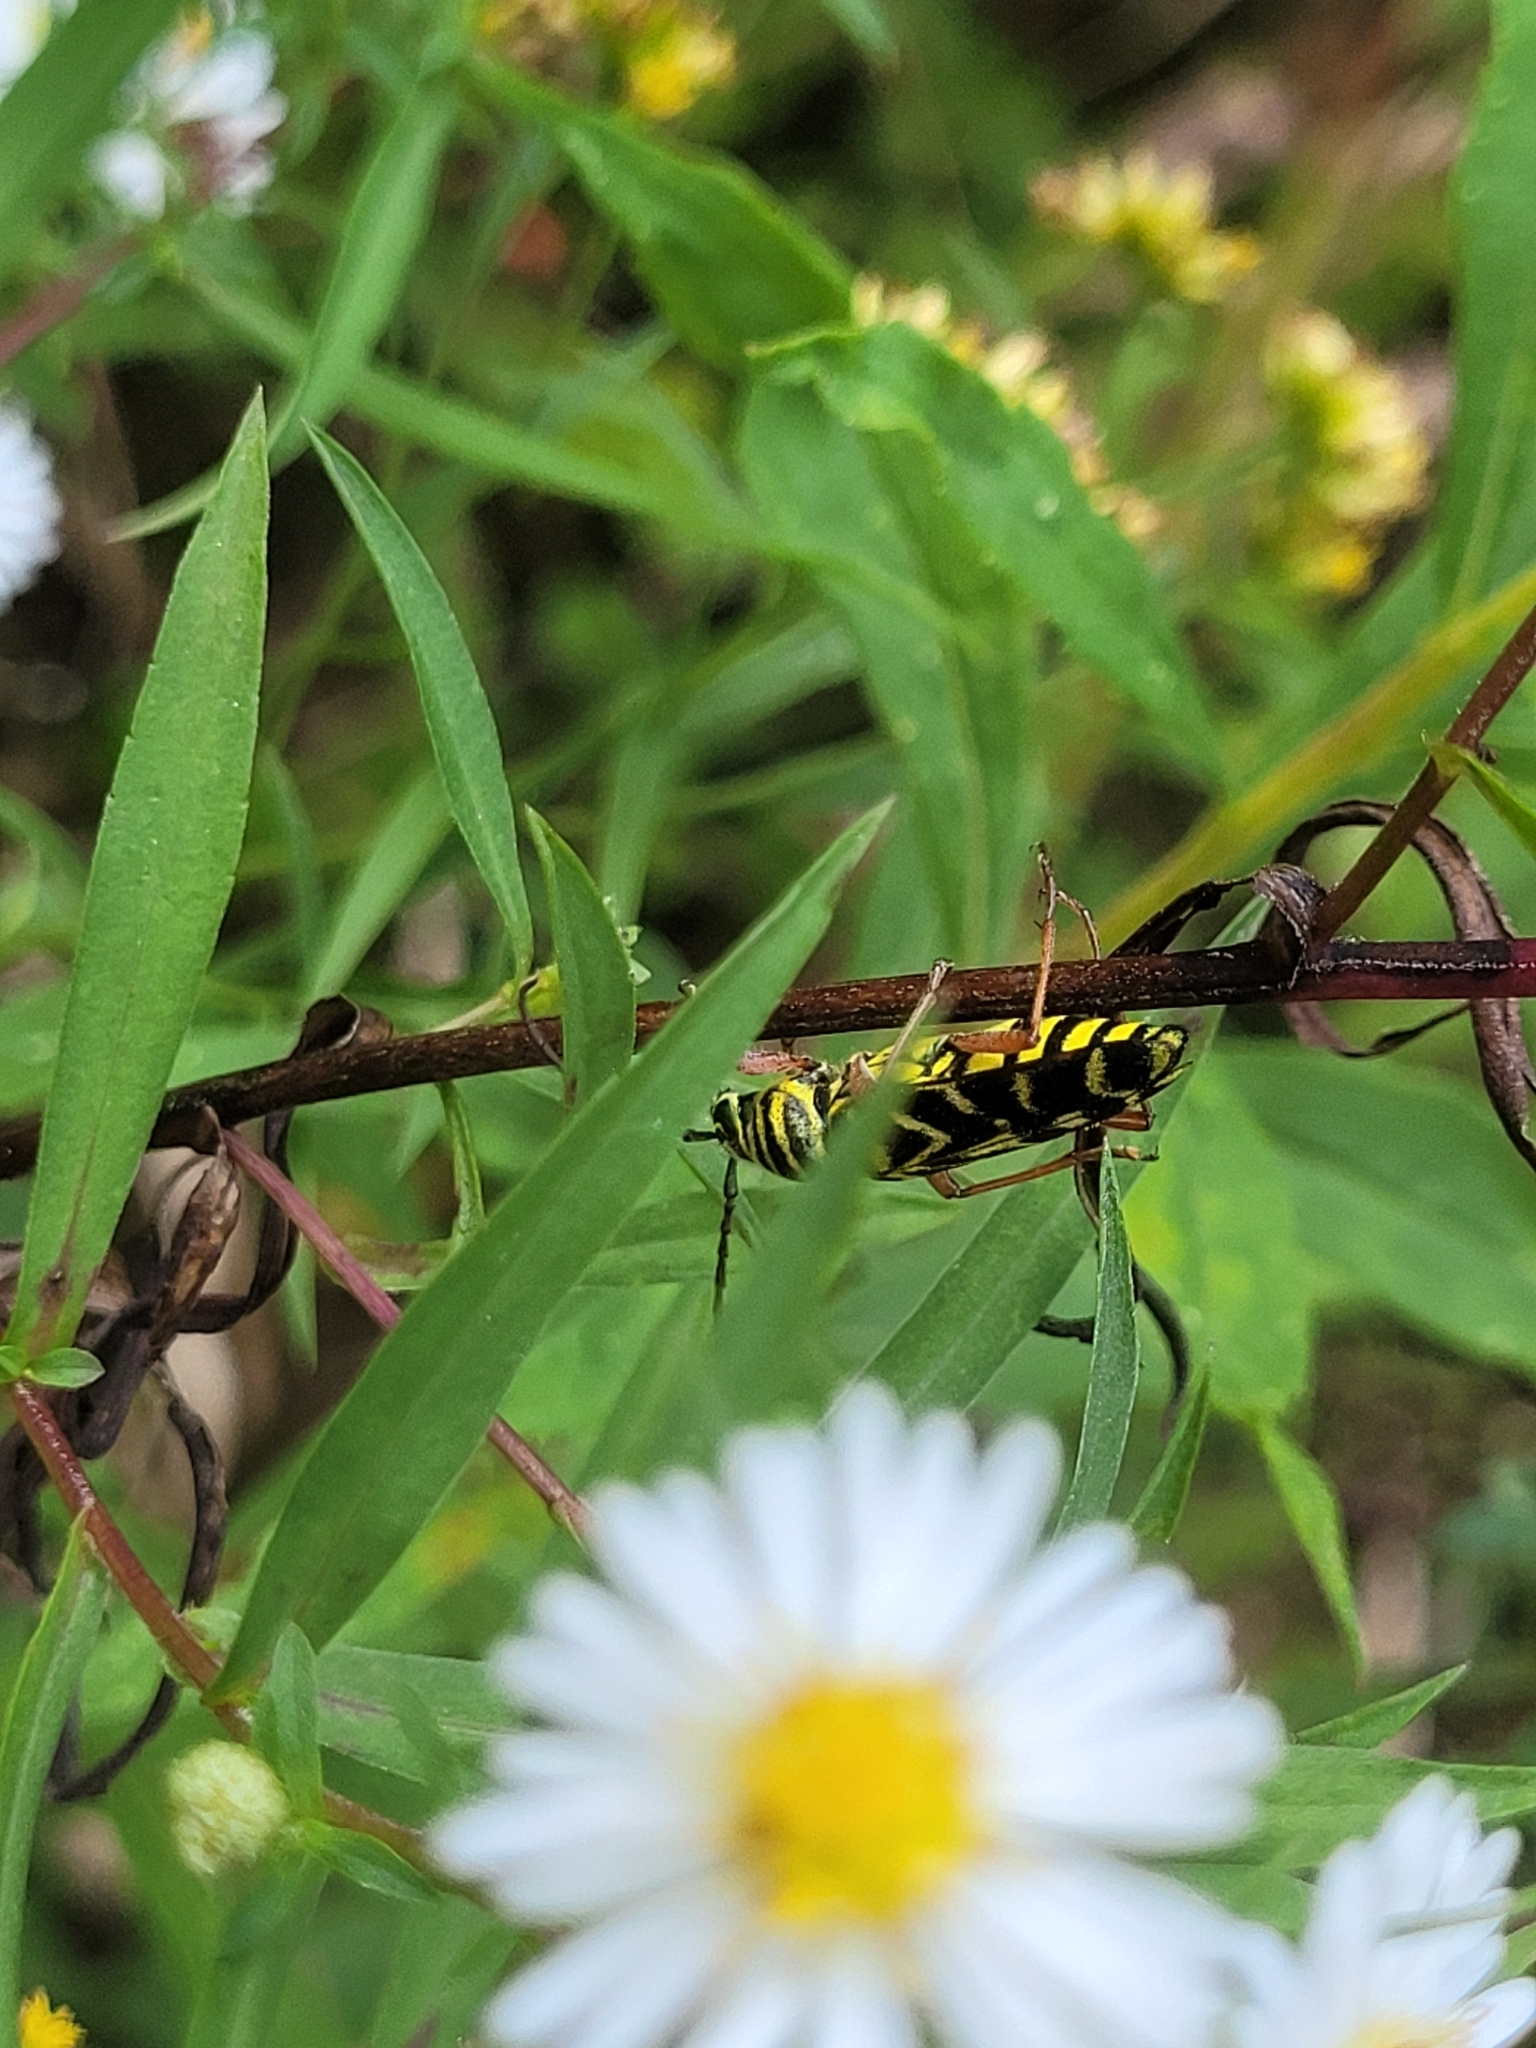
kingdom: Animalia
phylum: Arthropoda
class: Insecta
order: Coleoptera
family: Cerambycidae
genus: Megacyllene
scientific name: Megacyllene robiniae
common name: Locust borer
